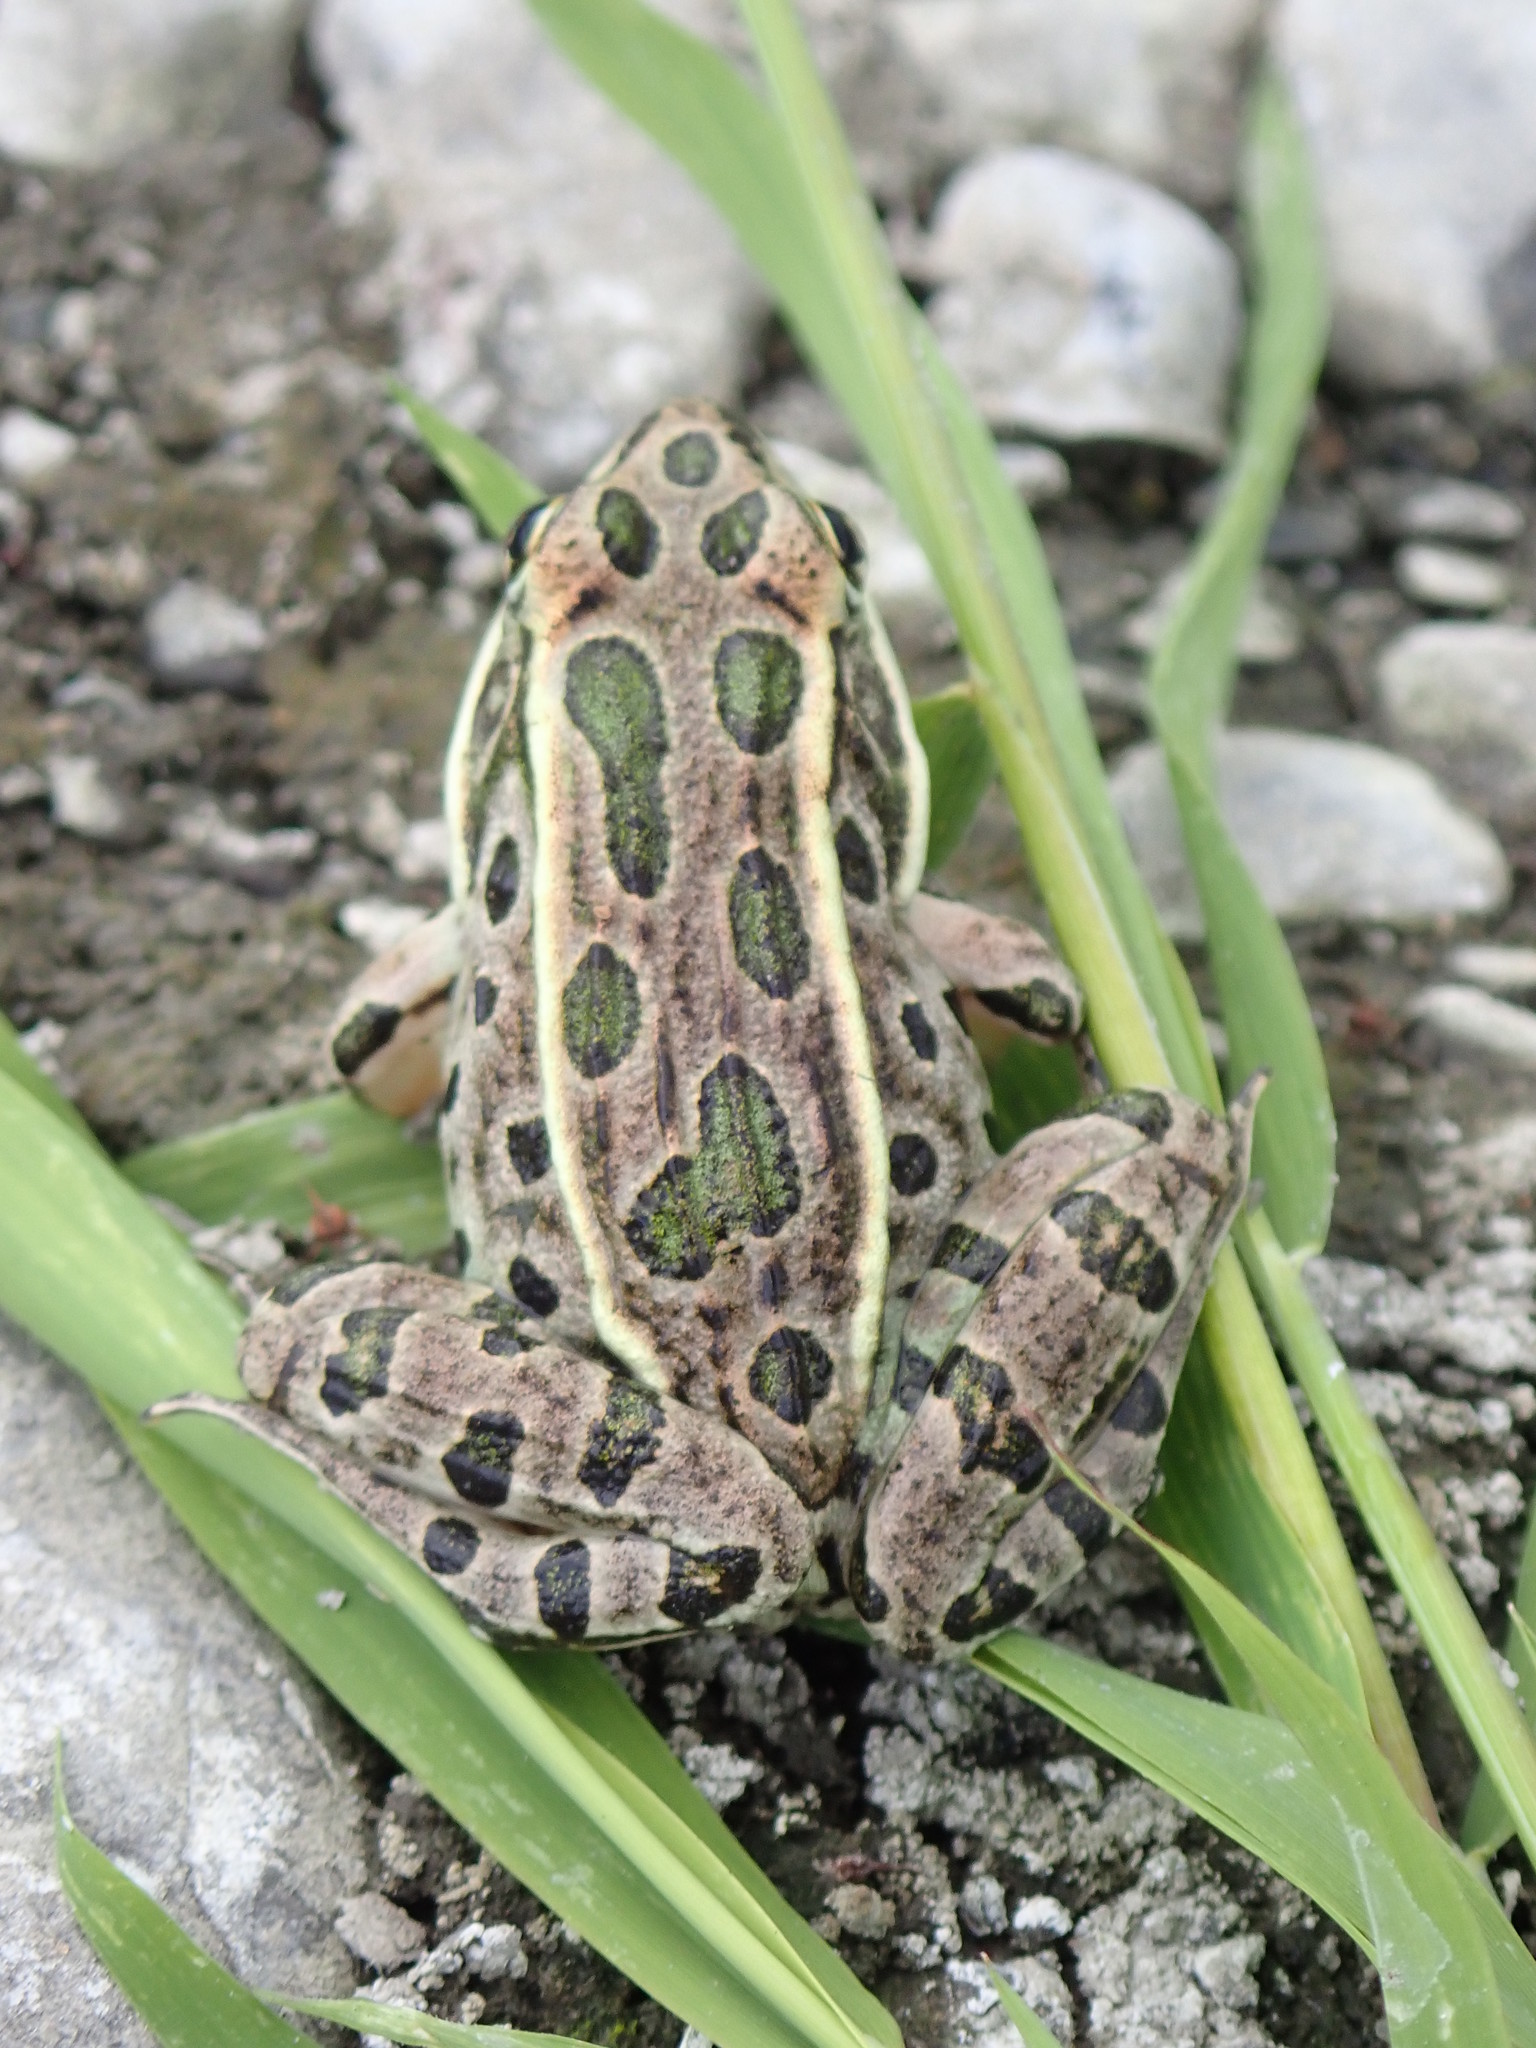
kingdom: Animalia
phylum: Chordata
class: Amphibia
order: Anura
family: Ranidae
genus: Lithobates
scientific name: Lithobates pipiens
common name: Northern leopard frog
